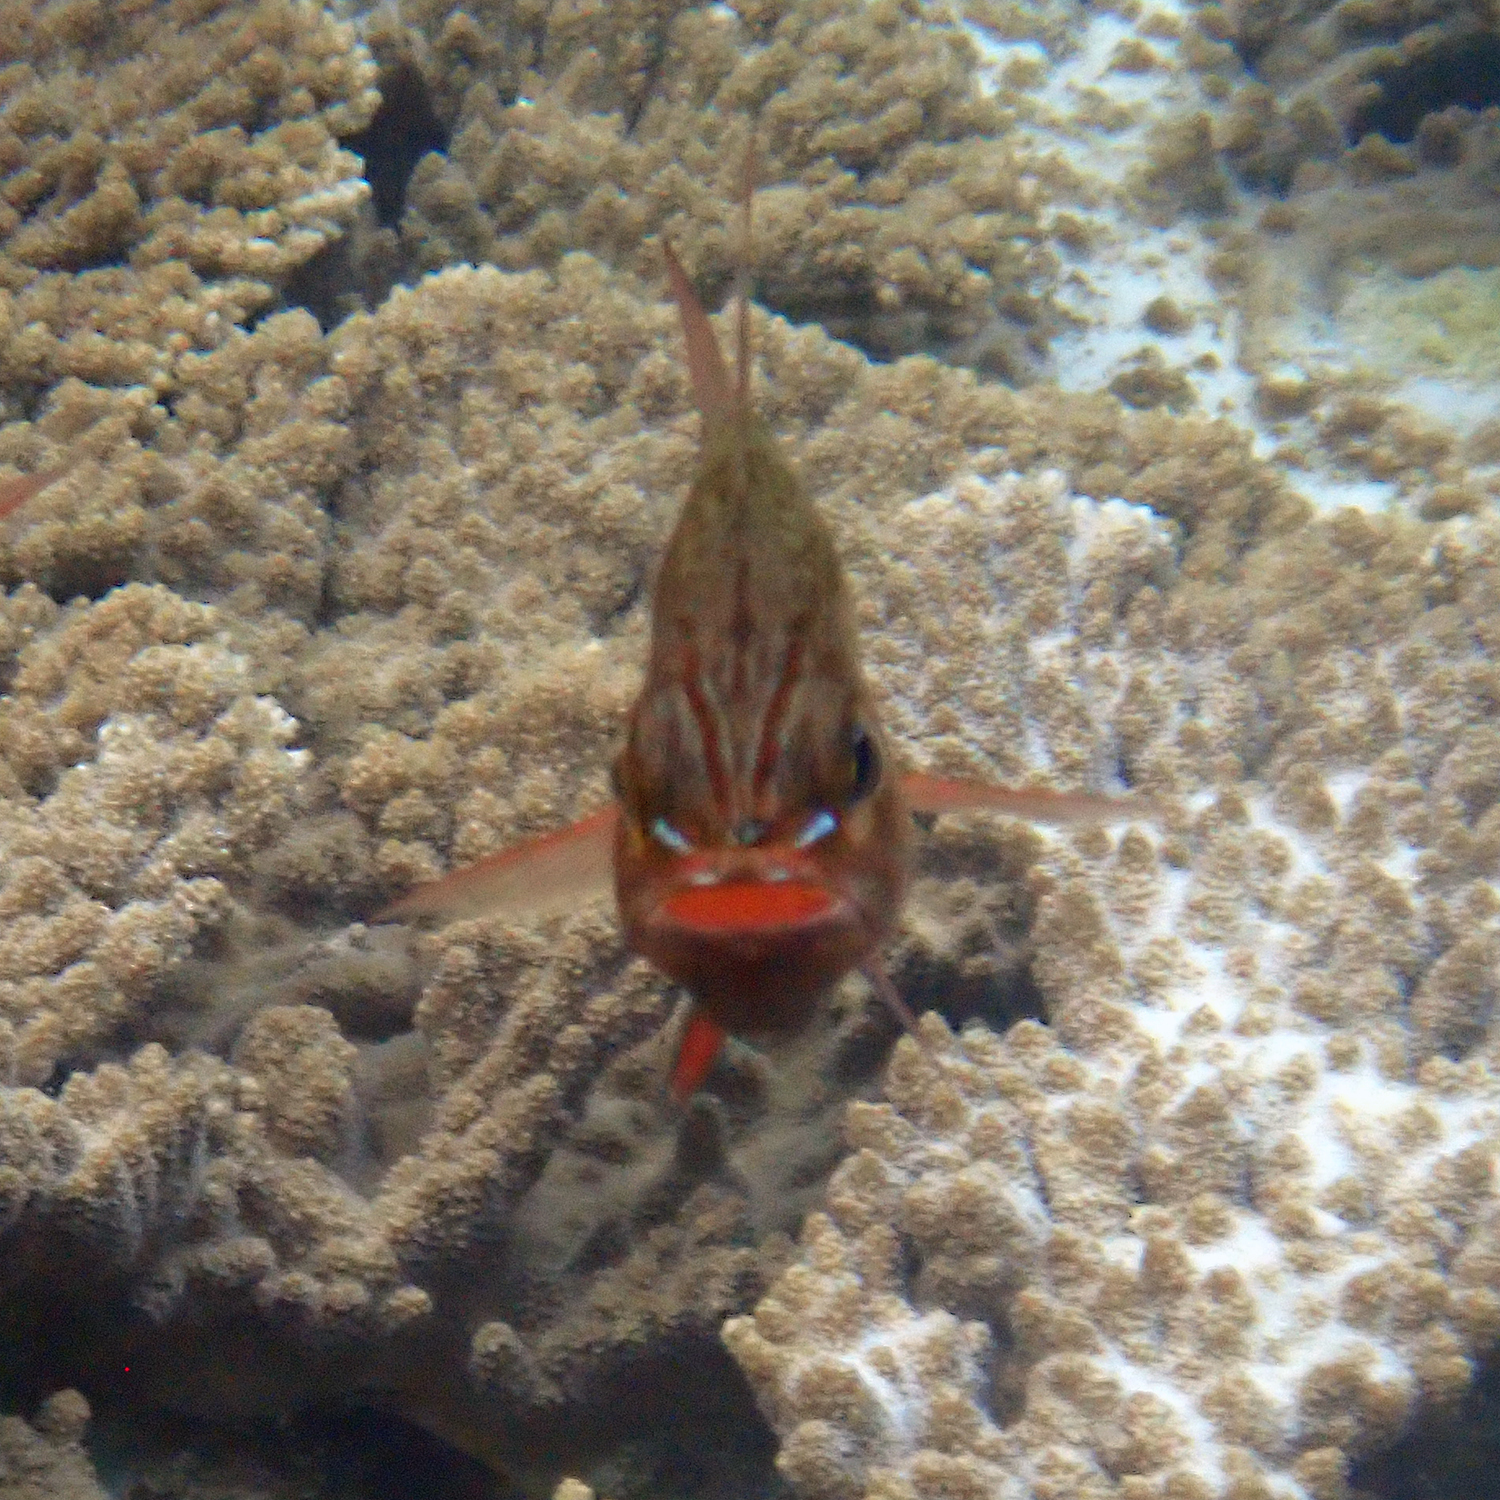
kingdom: Animalia
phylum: Chordata
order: Perciformes
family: Apogonidae
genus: Ostorhinchus
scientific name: Ostorhinchus norfolcensis
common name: Norfolk cardinalfish
